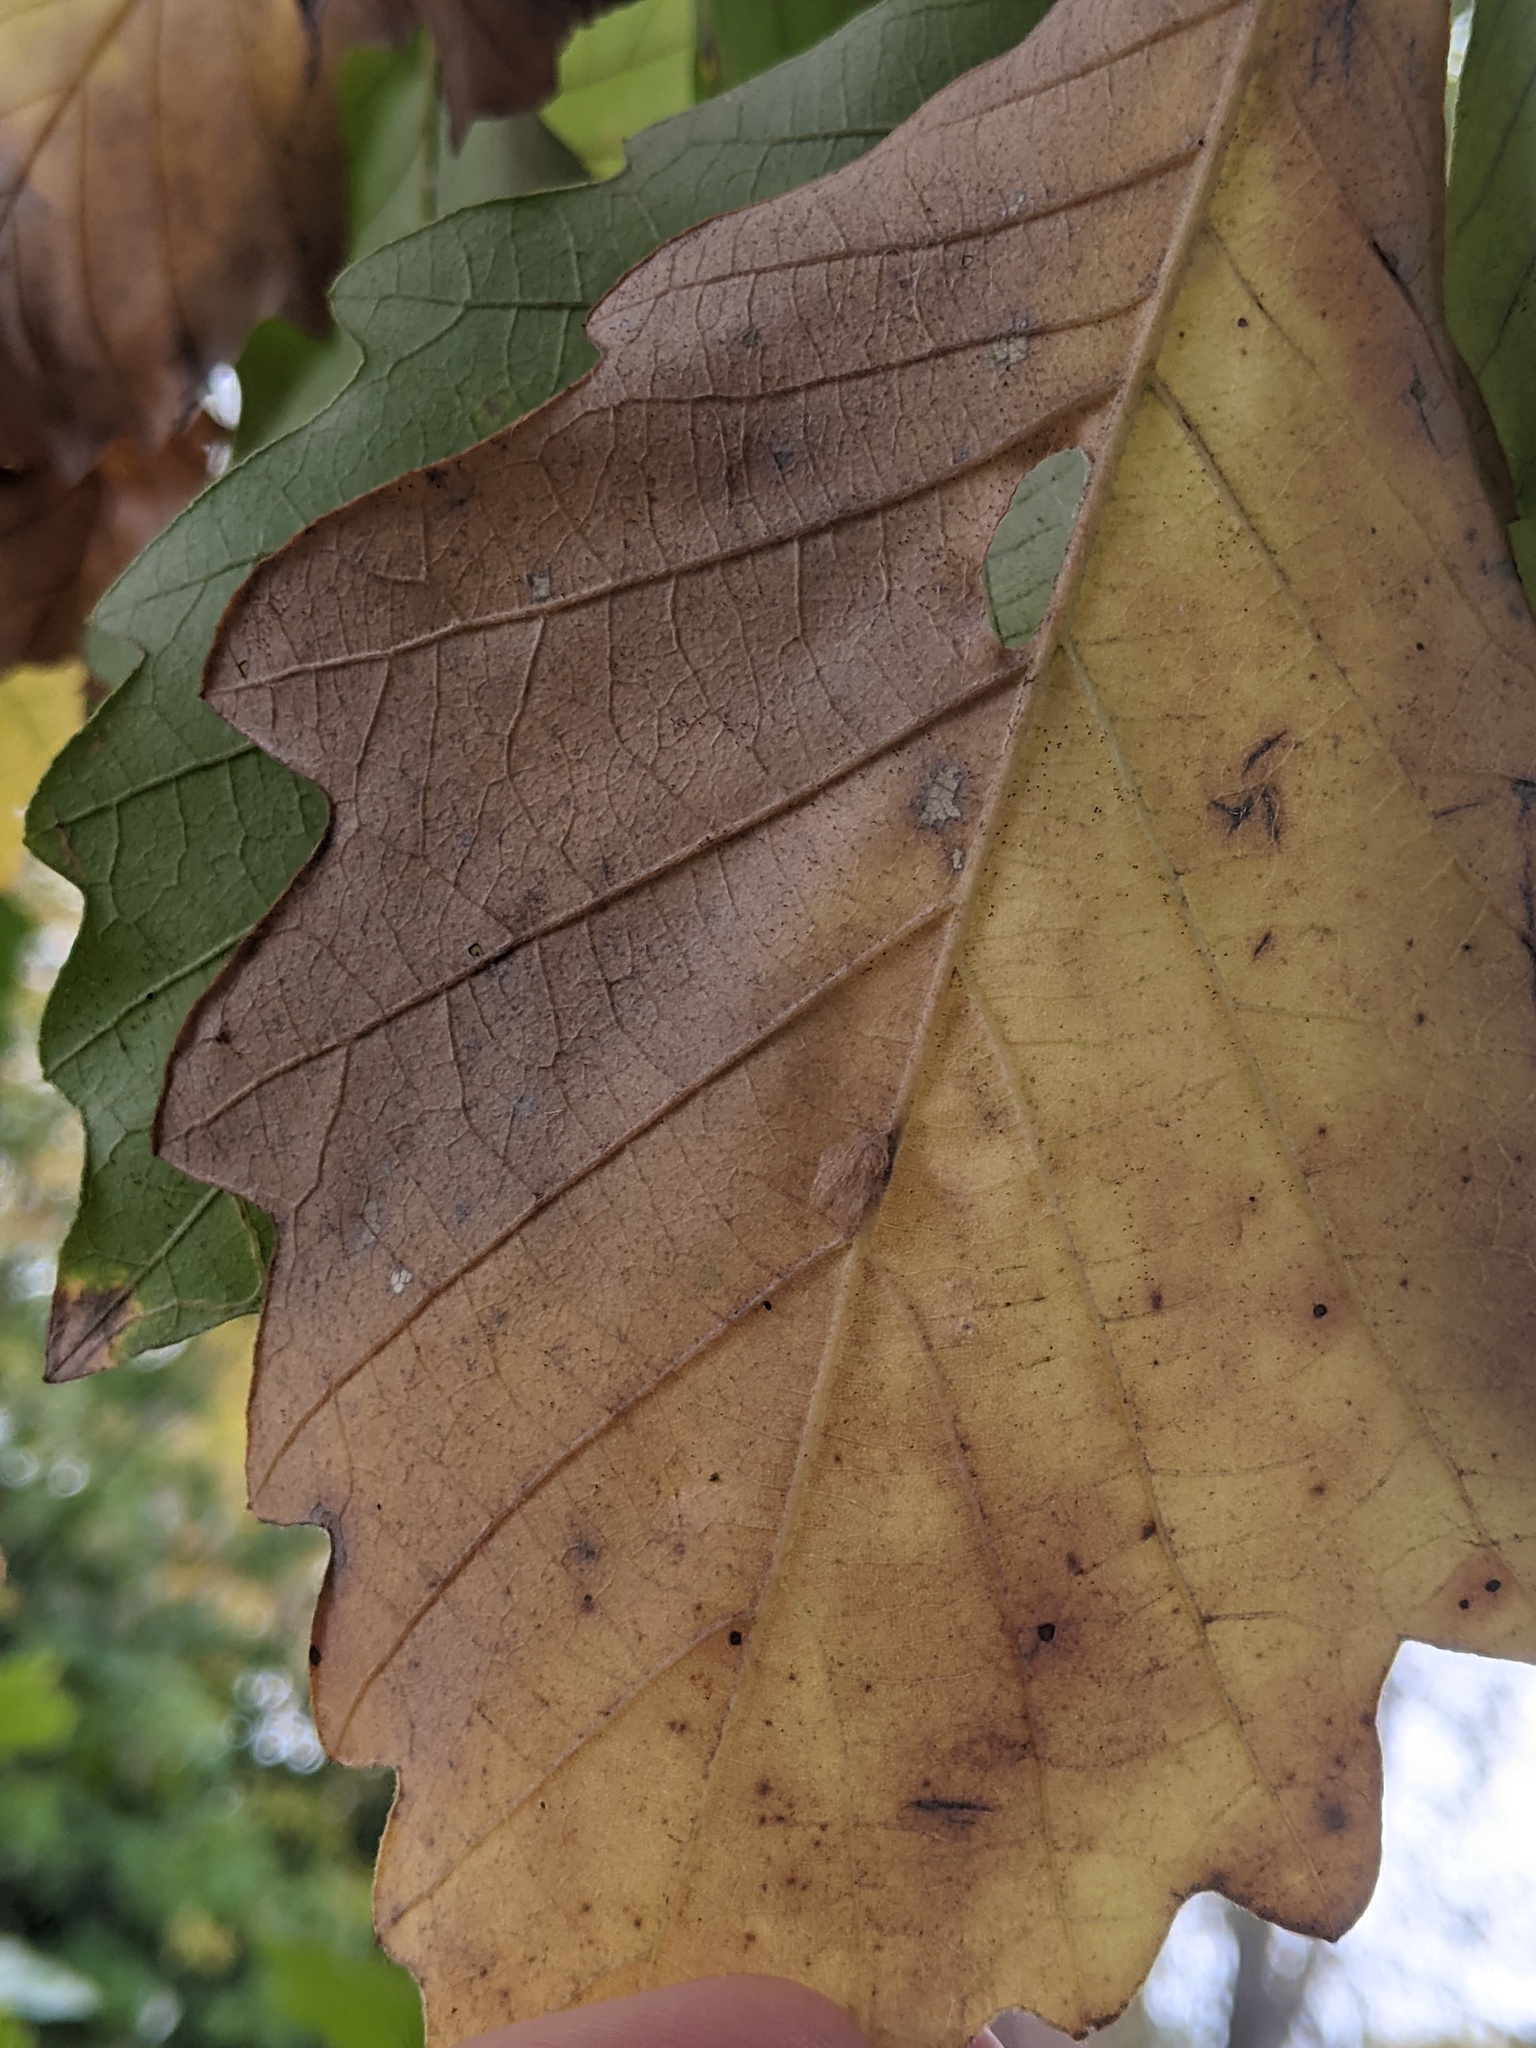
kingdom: Animalia
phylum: Arthropoda
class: Insecta
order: Hymenoptera
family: Cynipidae
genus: Andricus
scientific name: Andricus Druon ignotum
